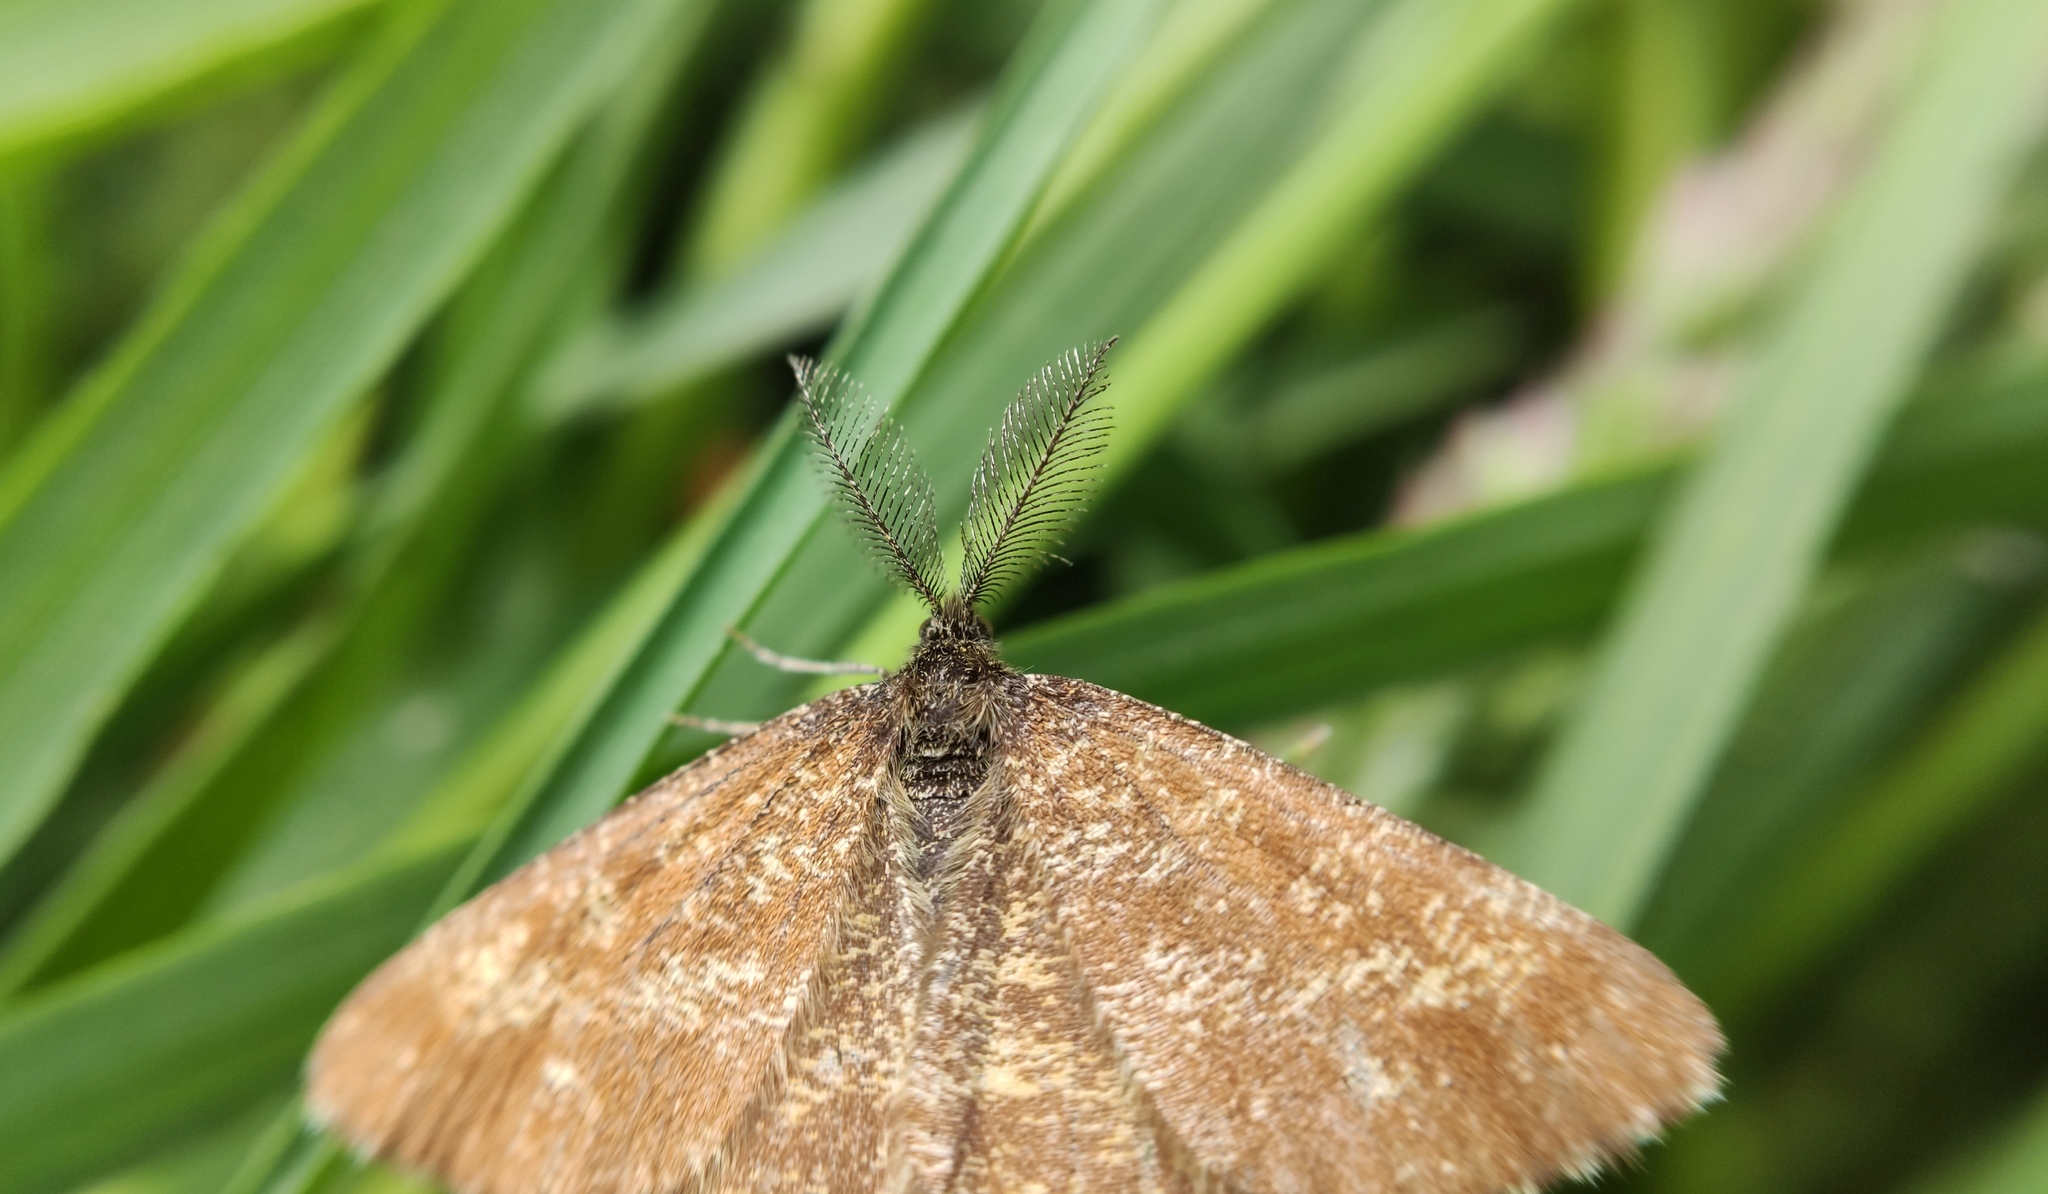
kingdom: Animalia
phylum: Arthropoda
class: Insecta
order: Lepidoptera
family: Geometridae
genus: Ematurga
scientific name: Ematurga atomaria
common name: Common heath
